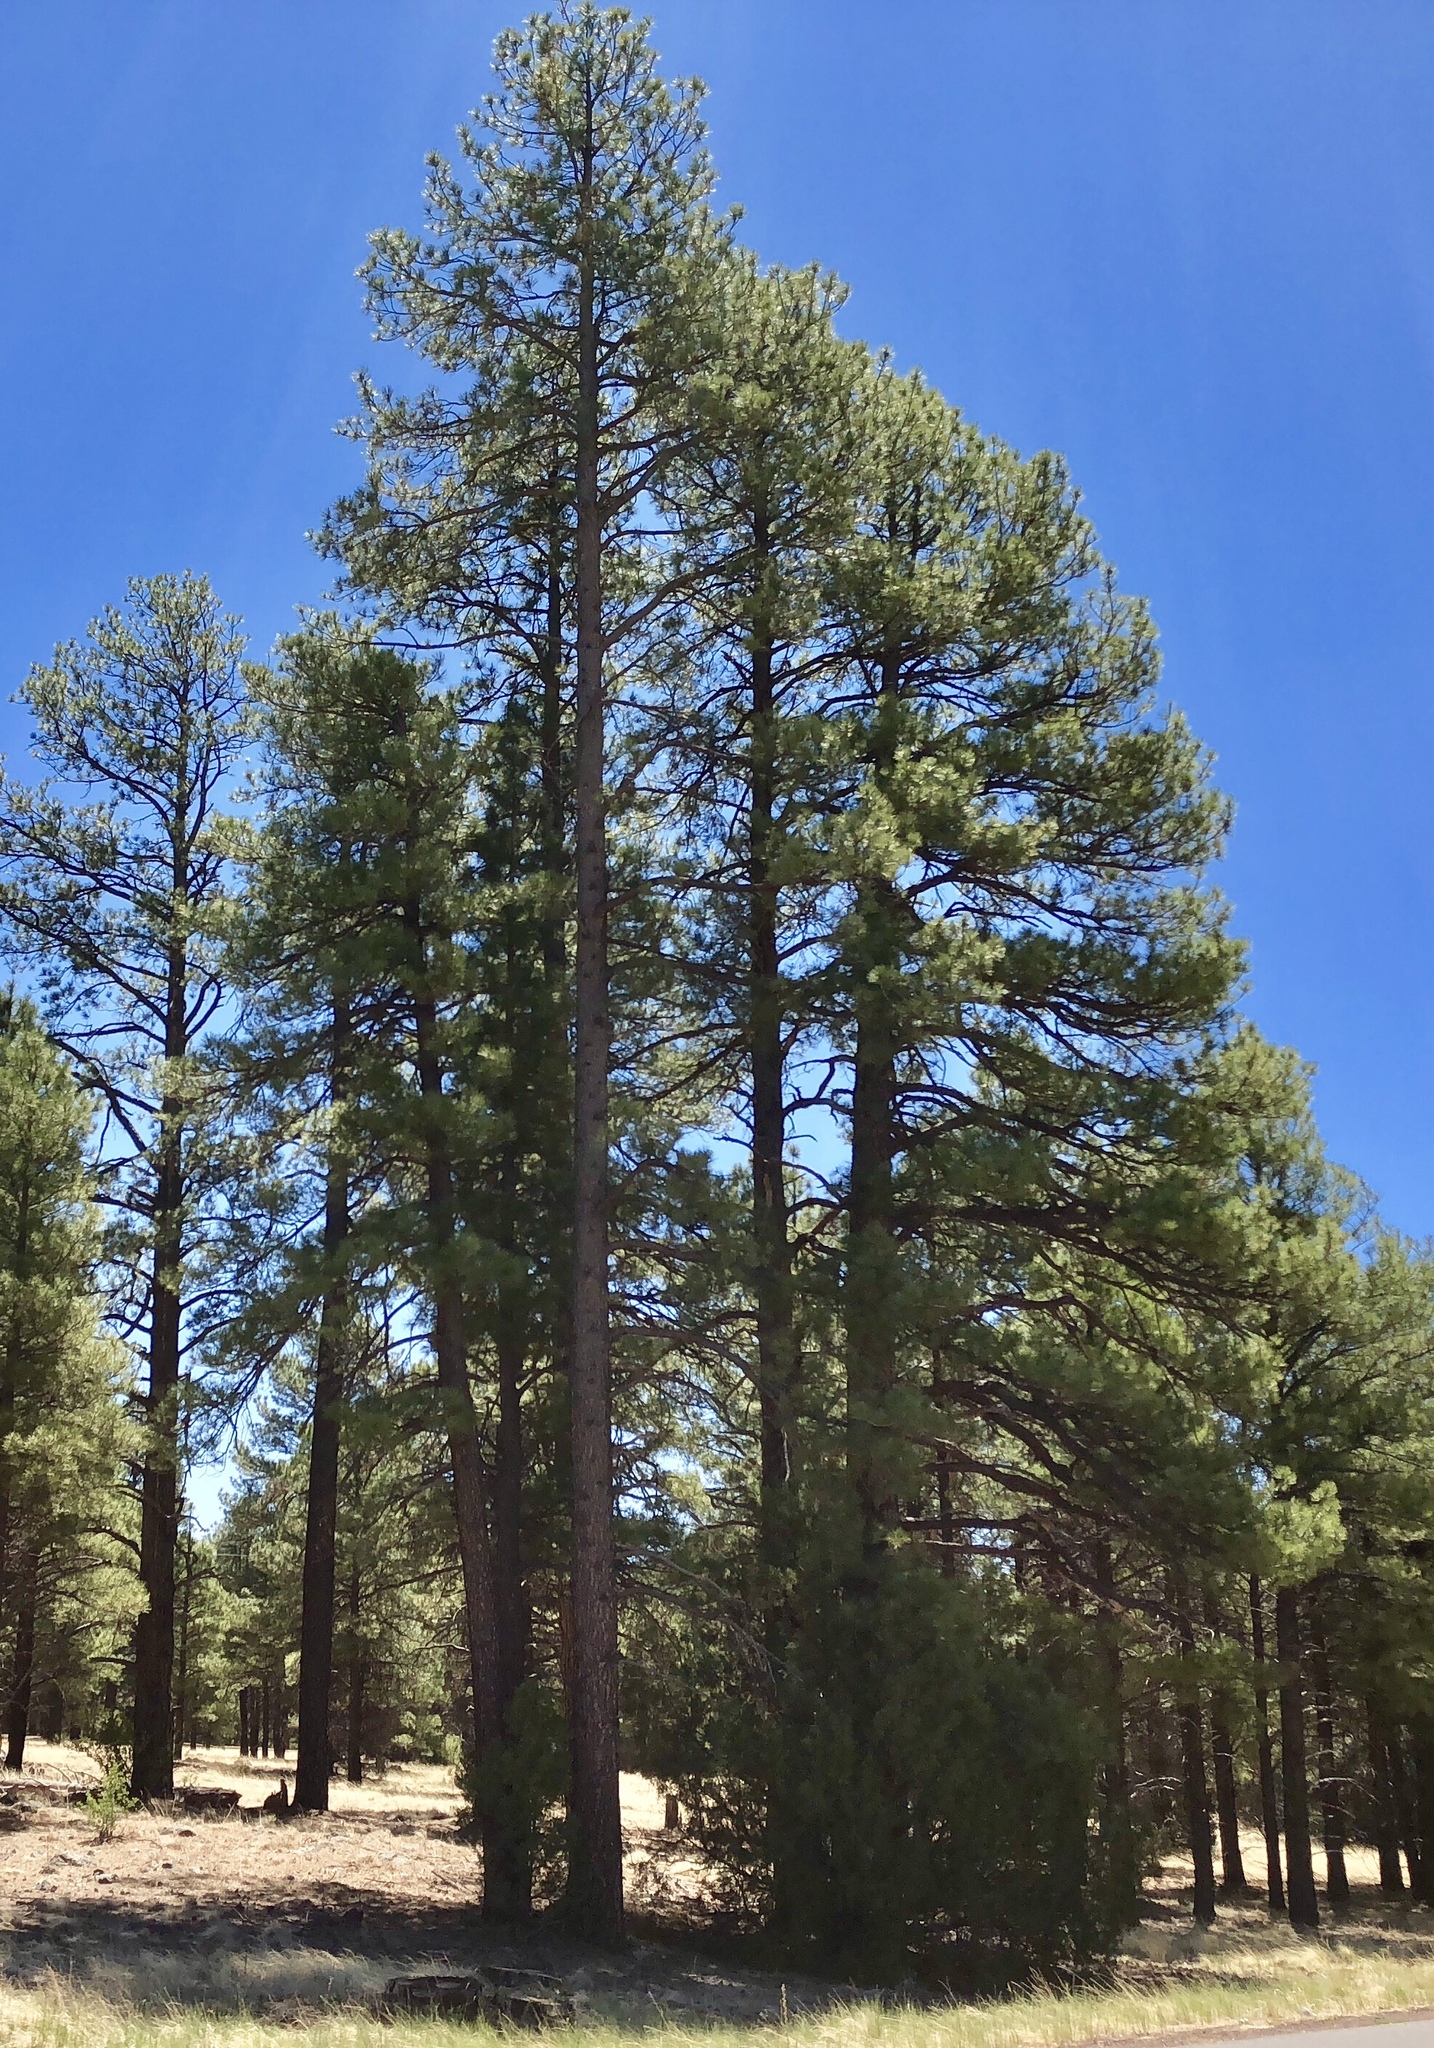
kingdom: Plantae
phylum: Tracheophyta
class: Pinopsida
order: Pinales
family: Pinaceae
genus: Pinus
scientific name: Pinus ponderosa
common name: Western yellow-pine
